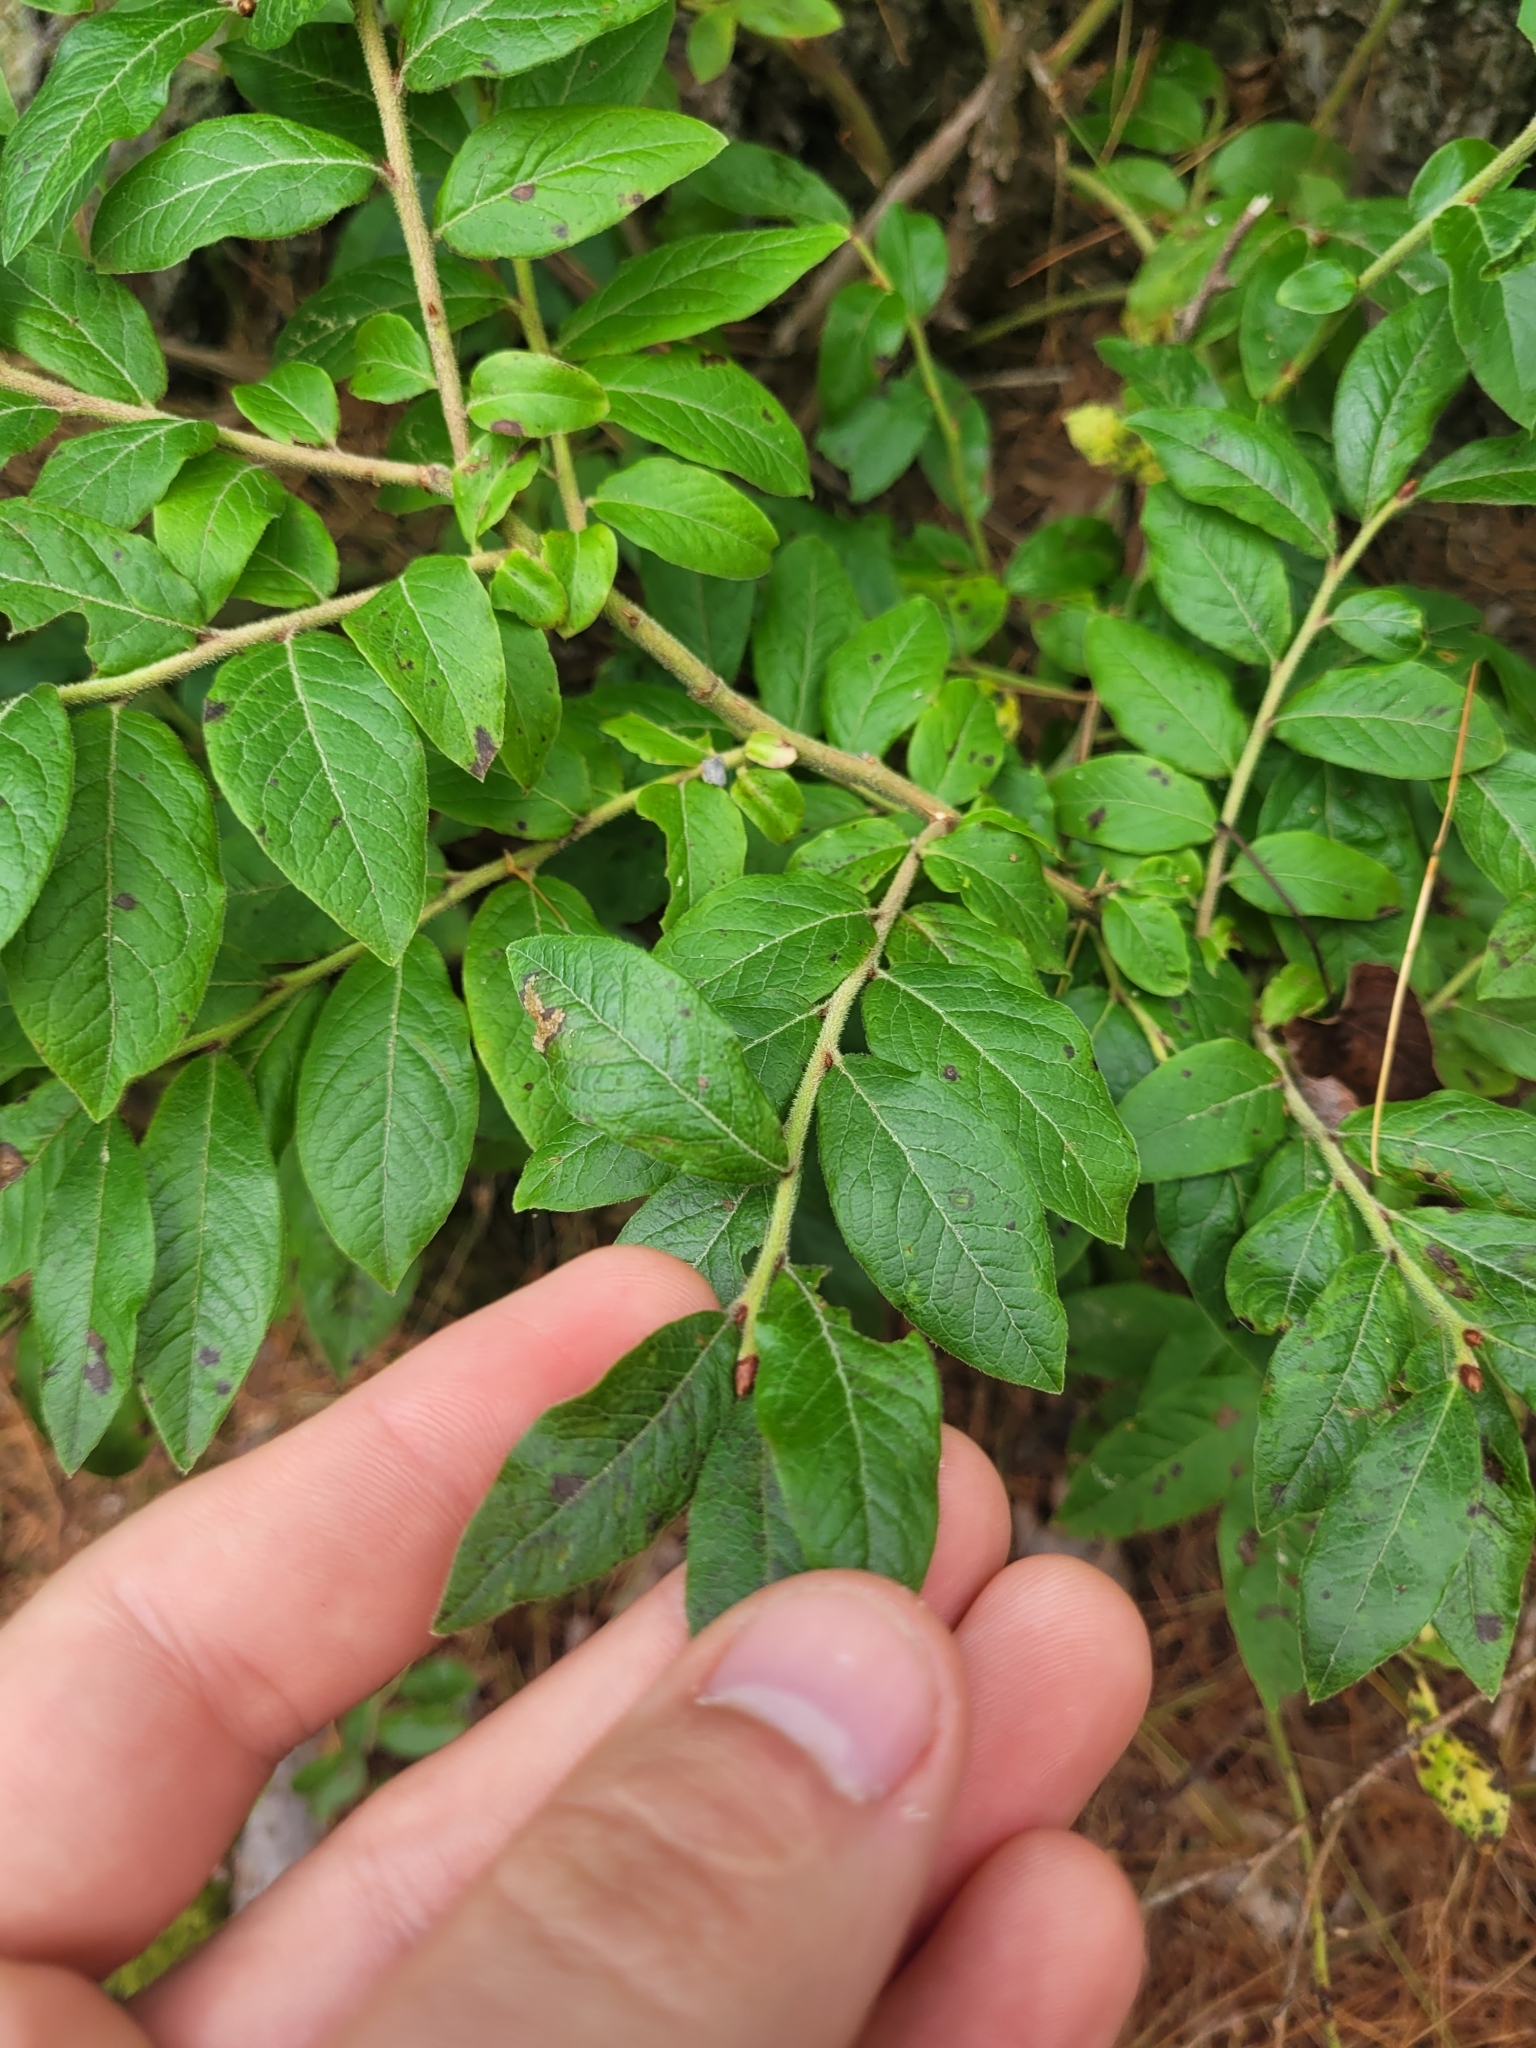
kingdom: Plantae
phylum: Tracheophyta
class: Magnoliopsida
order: Ericales
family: Ericaceae
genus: Vaccinium
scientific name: Vaccinium myrtilloides
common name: Canada blueberry
